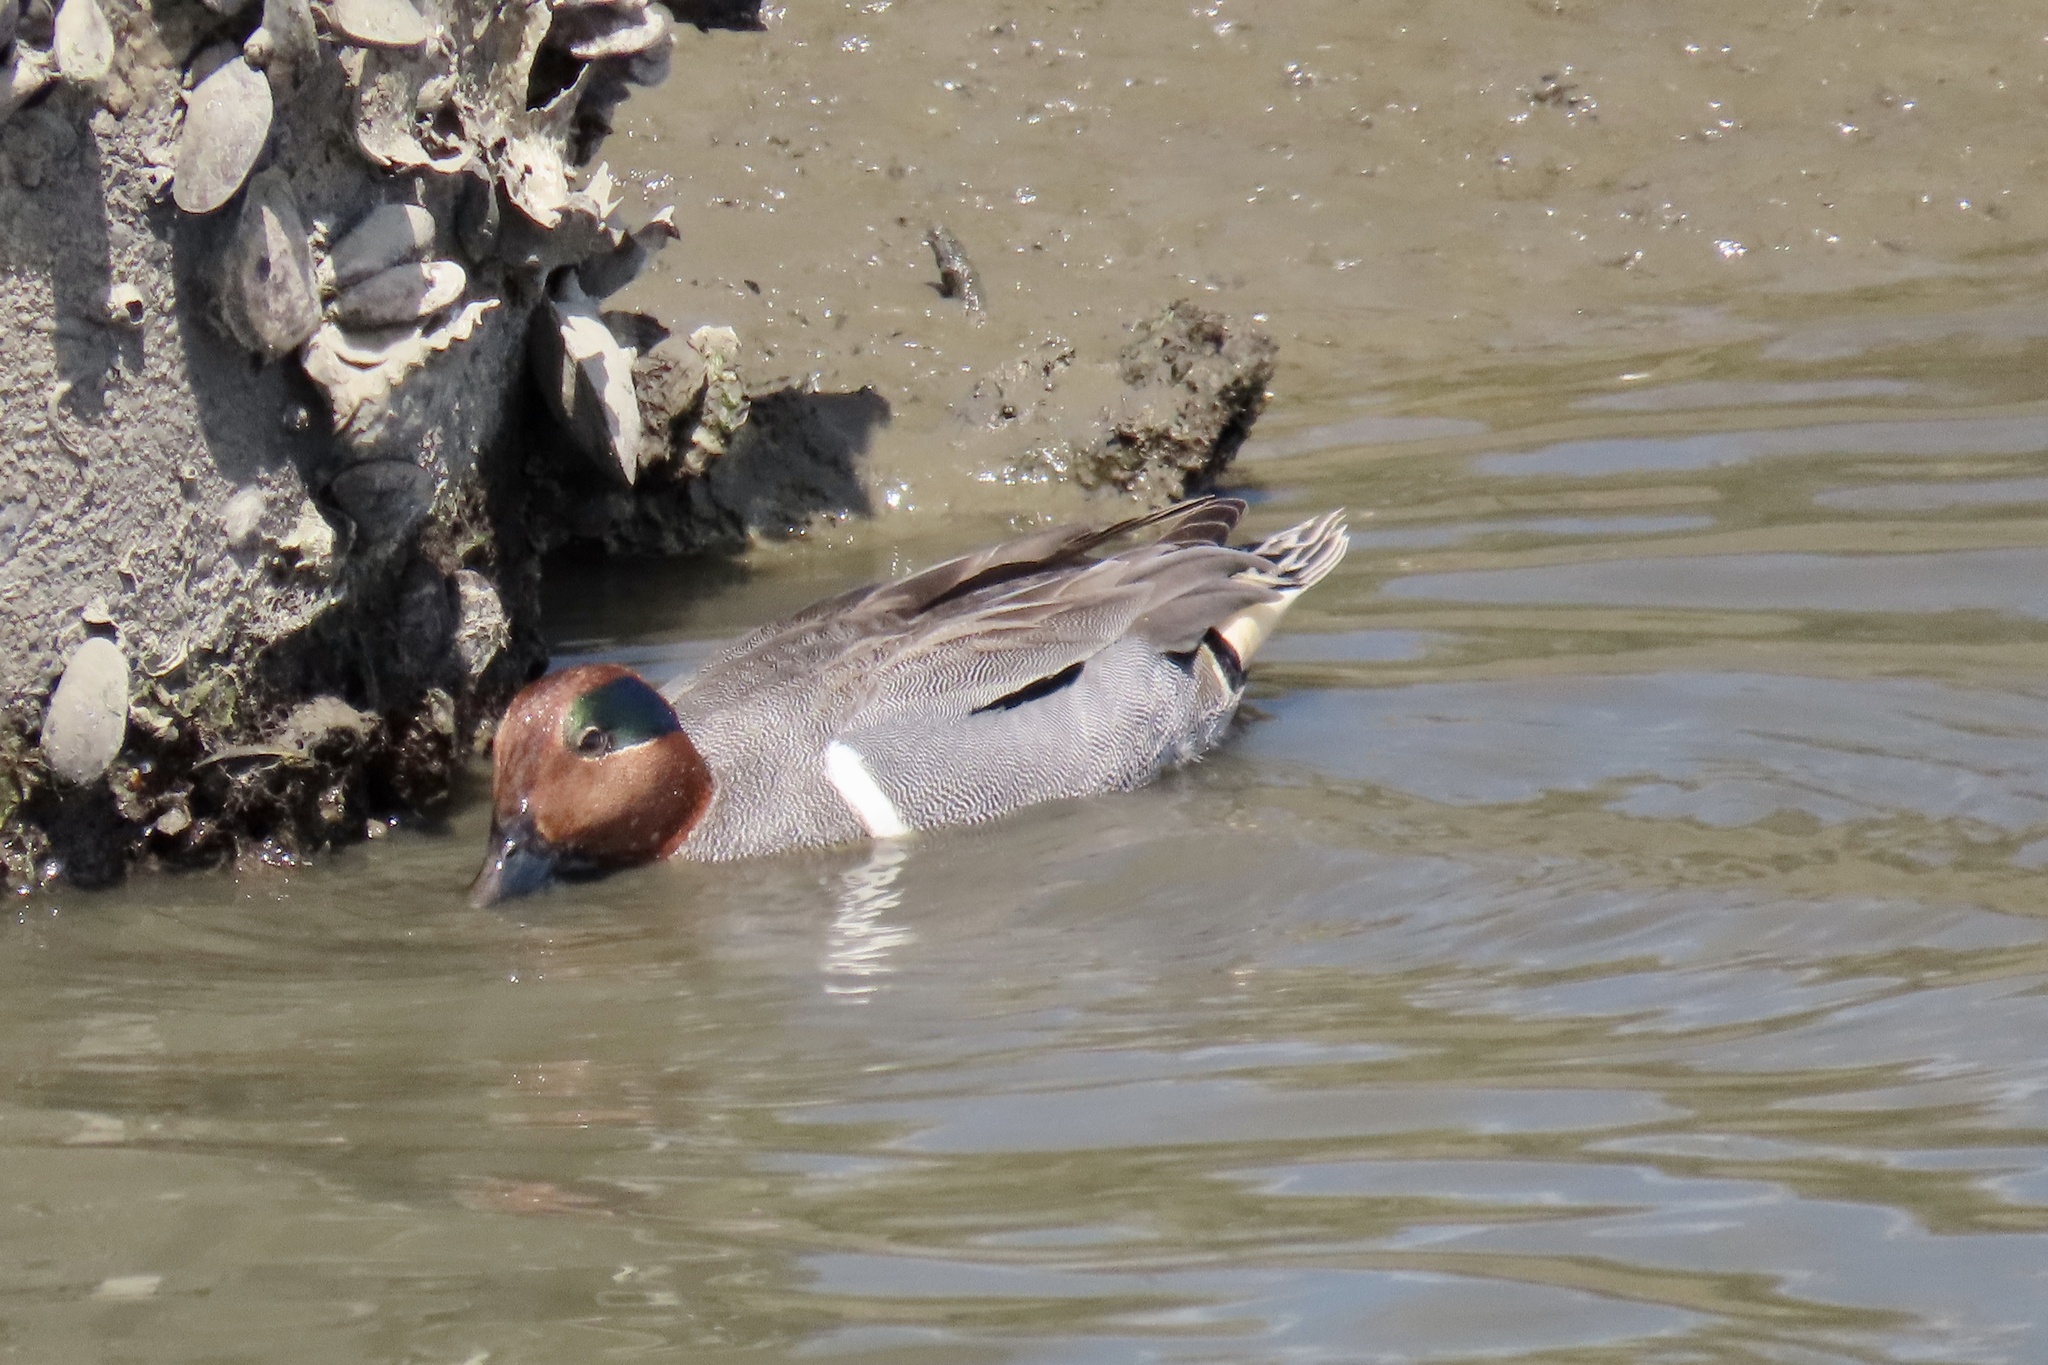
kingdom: Animalia
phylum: Chordata
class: Aves
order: Anseriformes
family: Anatidae
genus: Anas
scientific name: Anas crecca
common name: Eurasian teal
